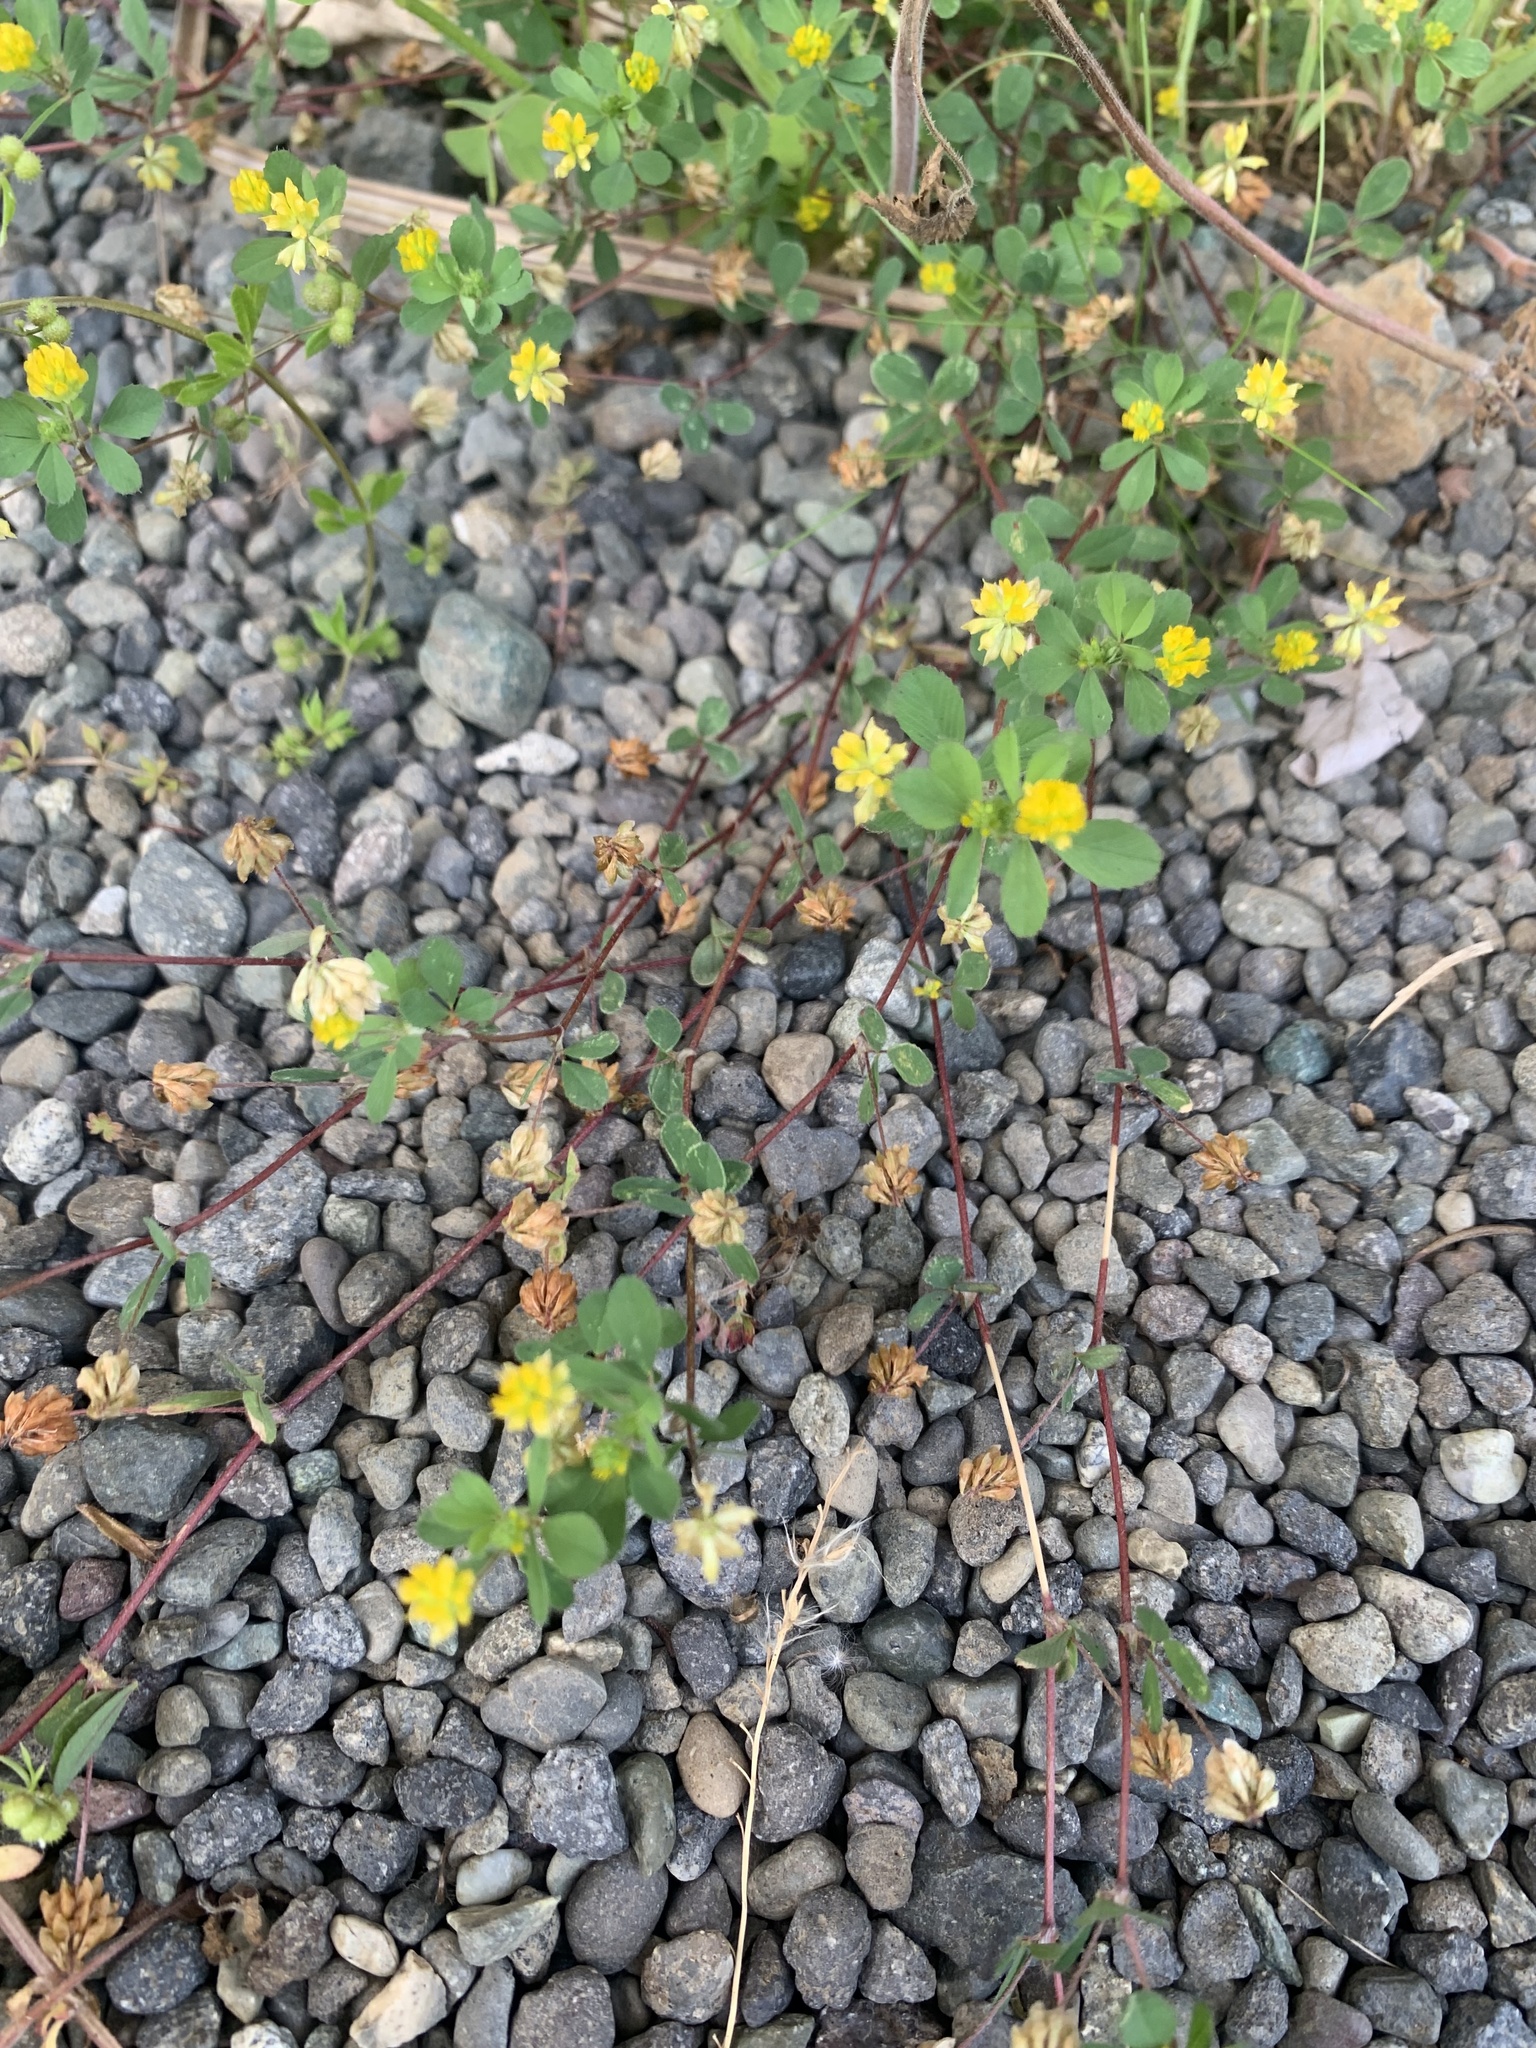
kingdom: Plantae
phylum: Tracheophyta
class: Magnoliopsida
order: Fabales
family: Fabaceae
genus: Trifolium
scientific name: Trifolium dubium
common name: Suckling clover
